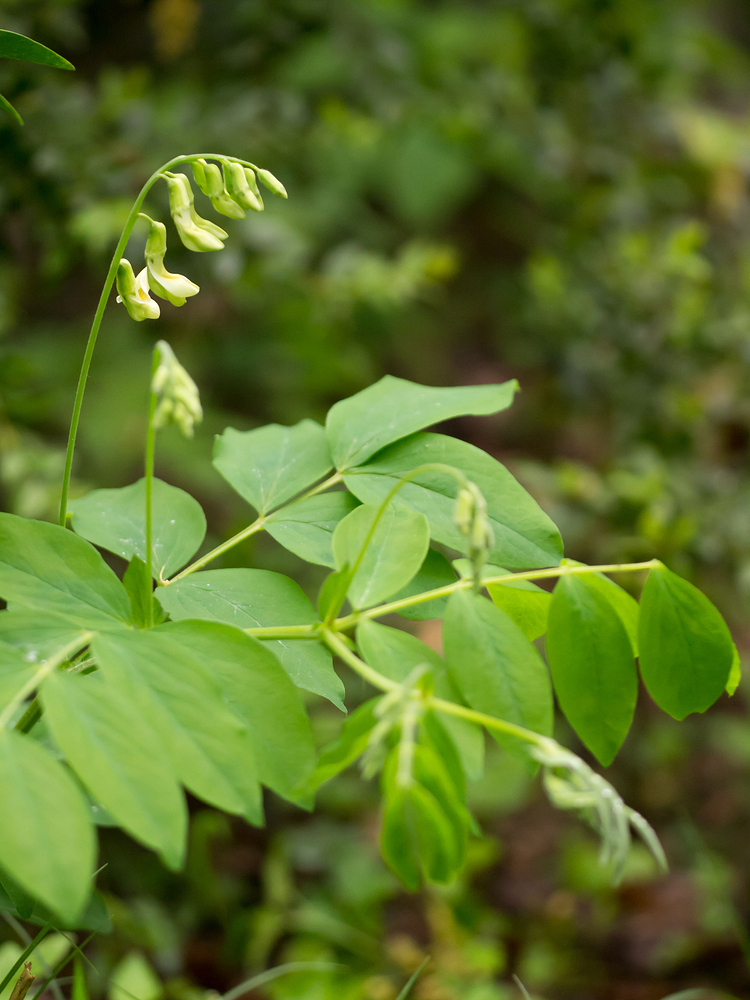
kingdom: Plantae
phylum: Tracheophyta
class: Magnoliopsida
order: Fabales
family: Fabaceae
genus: Lathyrus
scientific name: Lathyrus laevigatus
